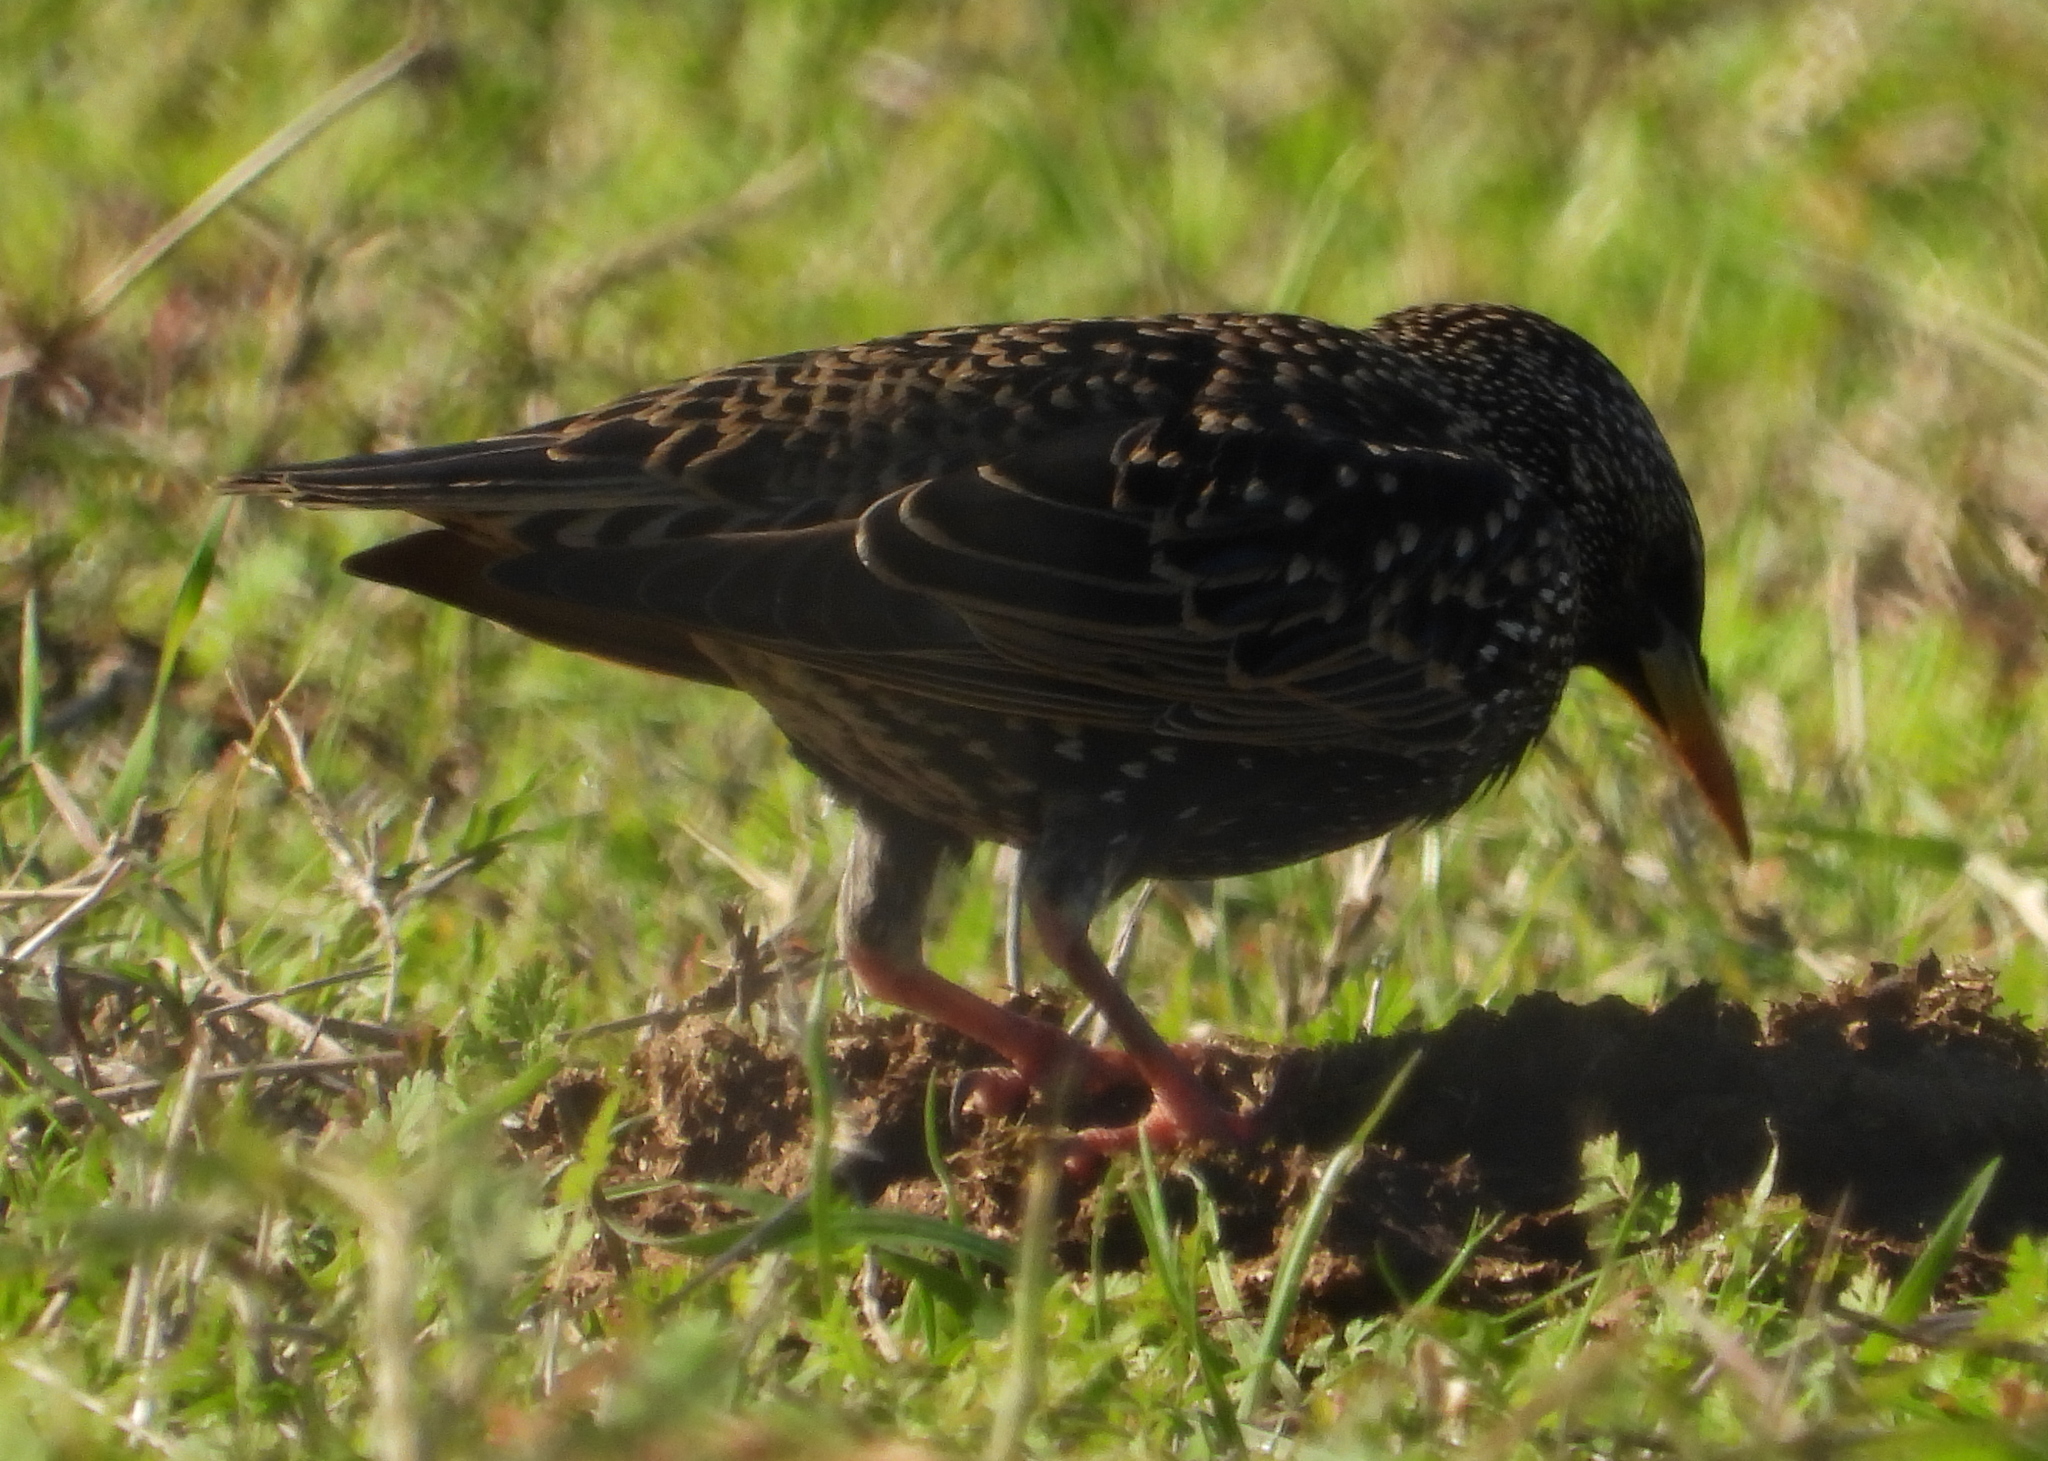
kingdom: Animalia
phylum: Chordata
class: Aves
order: Passeriformes
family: Sturnidae
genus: Sturnus
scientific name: Sturnus vulgaris
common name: Common starling
